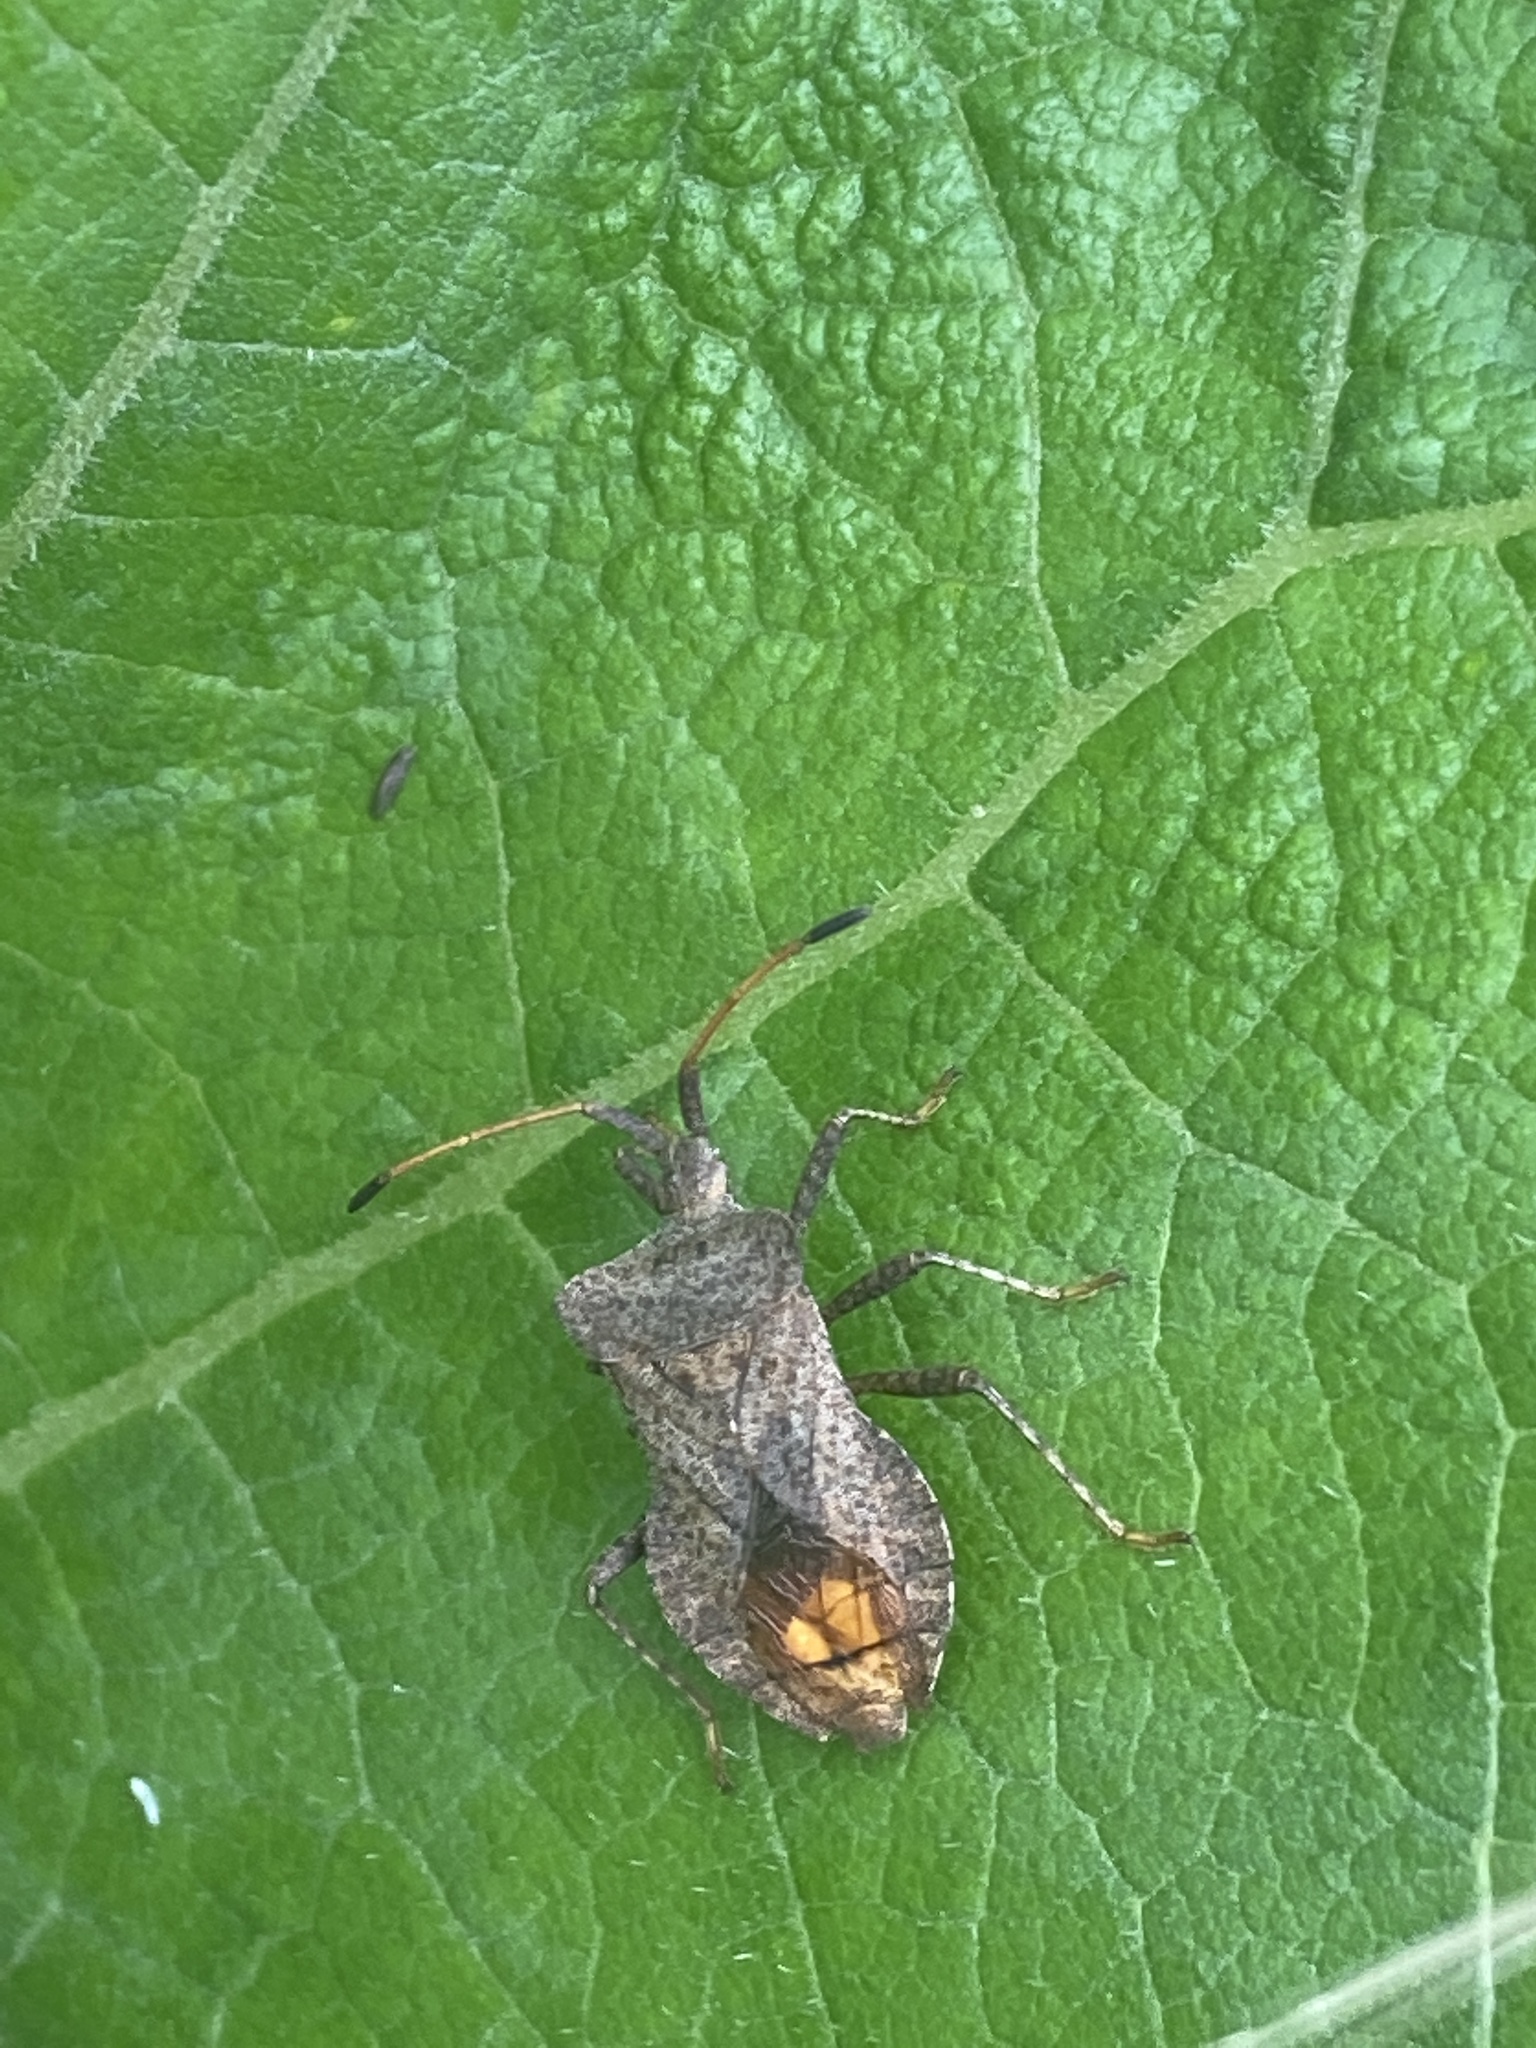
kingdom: Animalia
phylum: Arthropoda
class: Insecta
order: Hemiptera
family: Coreidae
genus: Coreus
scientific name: Coreus marginatus
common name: Dock bug
